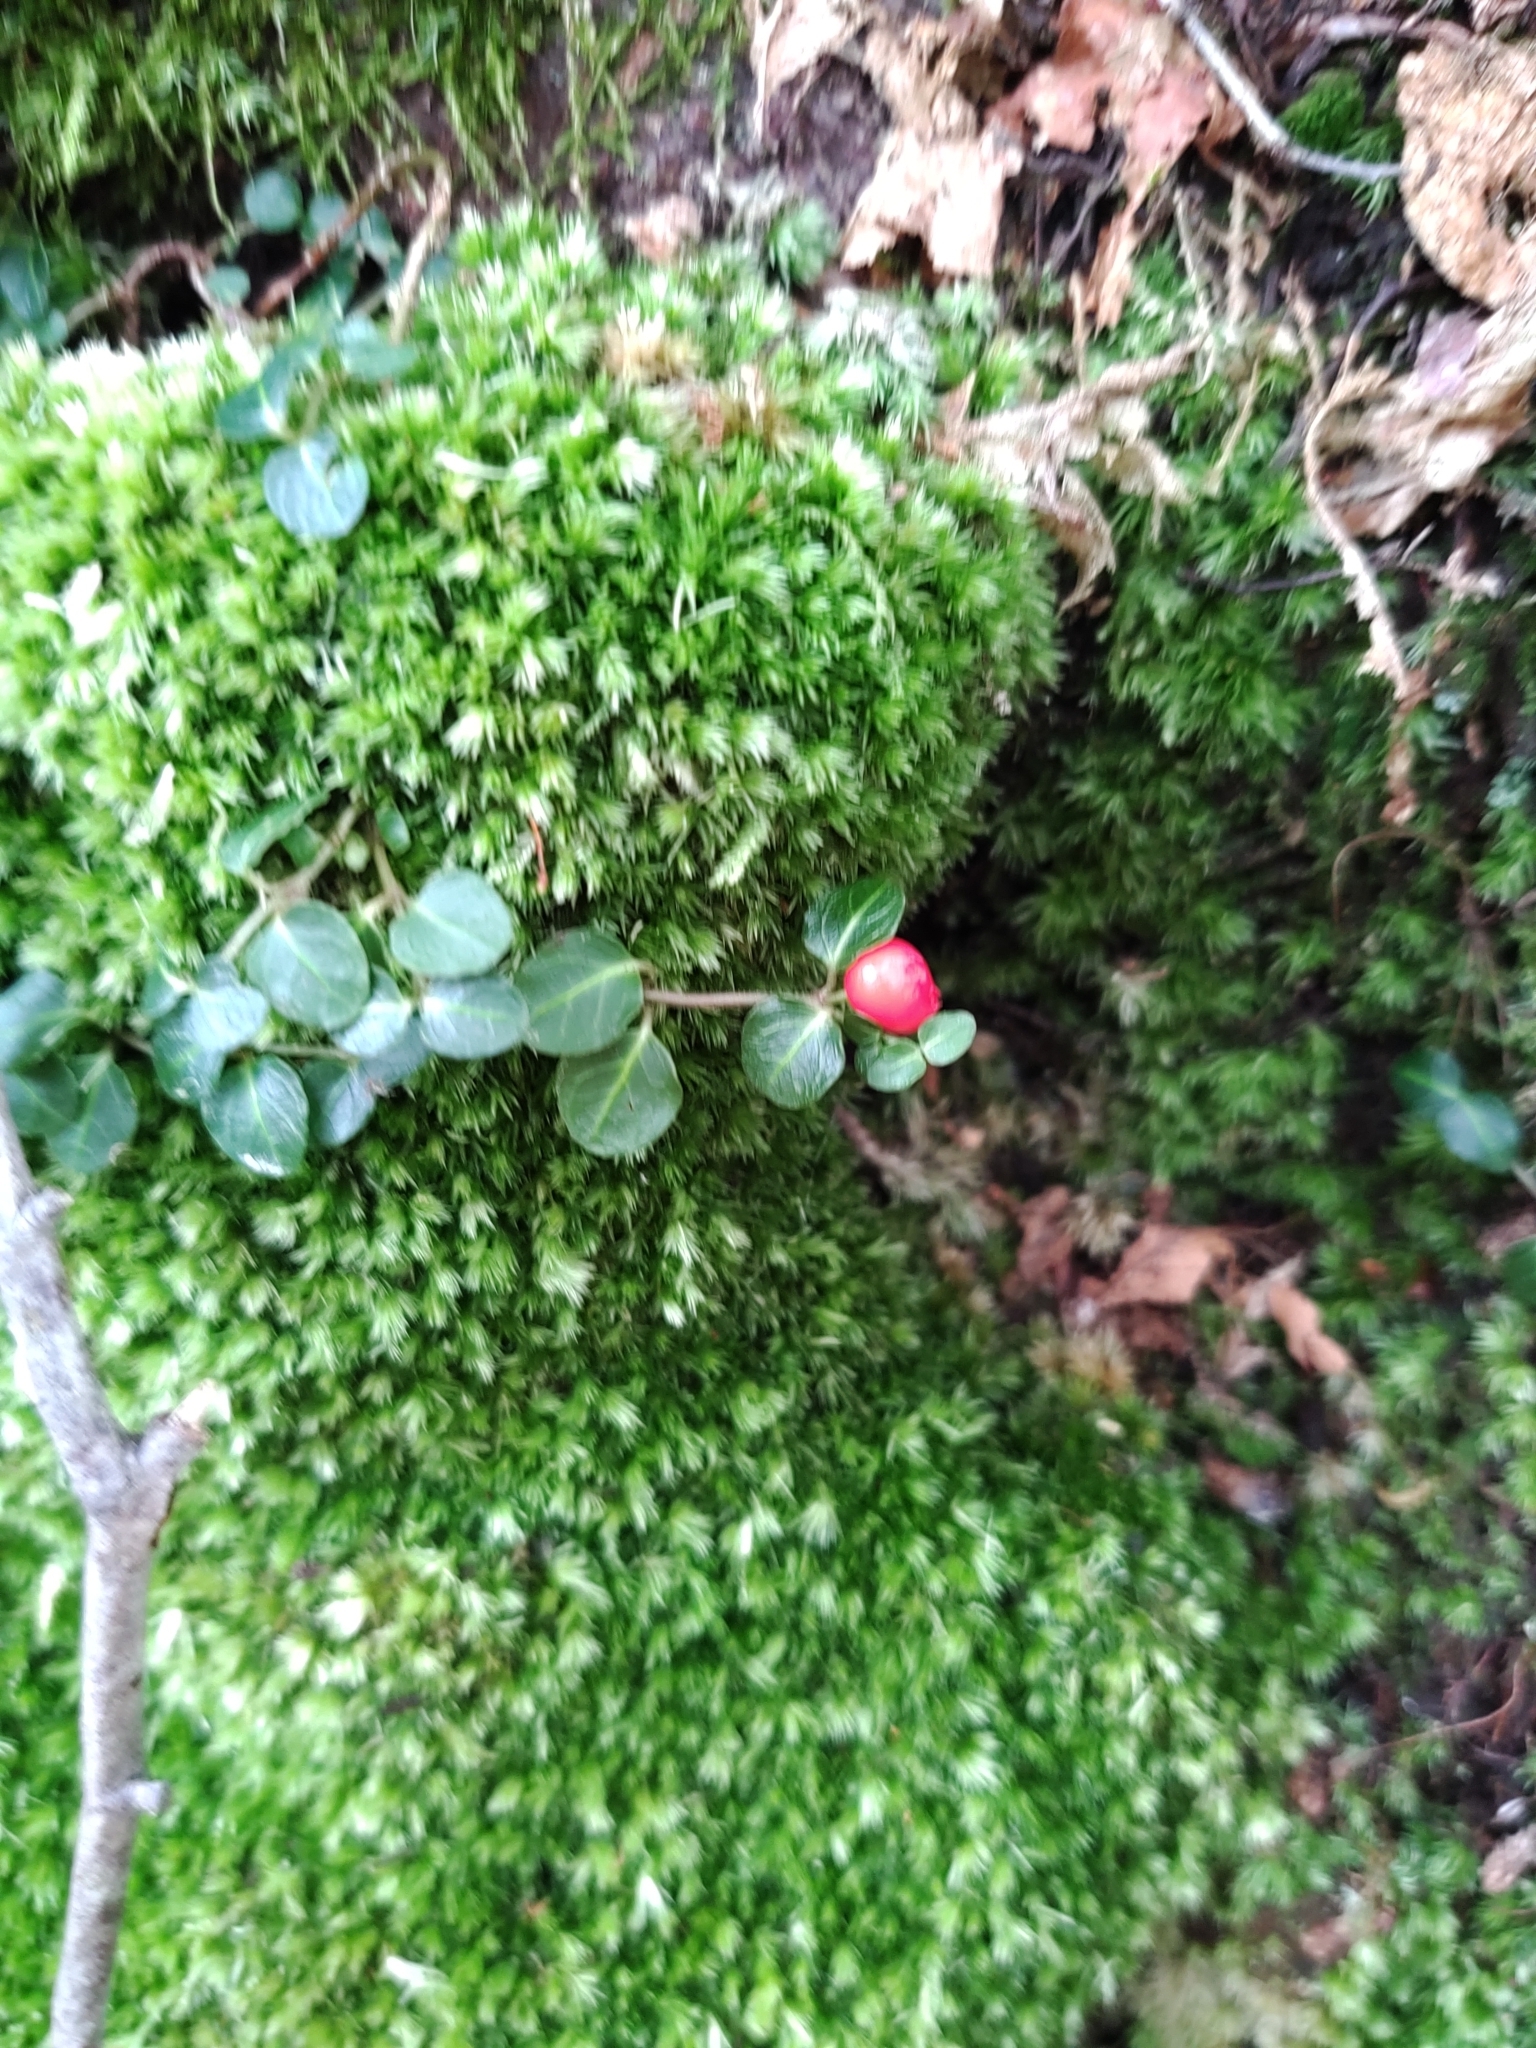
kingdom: Plantae
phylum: Tracheophyta
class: Magnoliopsida
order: Gentianales
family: Rubiaceae
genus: Mitchella
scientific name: Mitchella repens
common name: Partridge-berry
